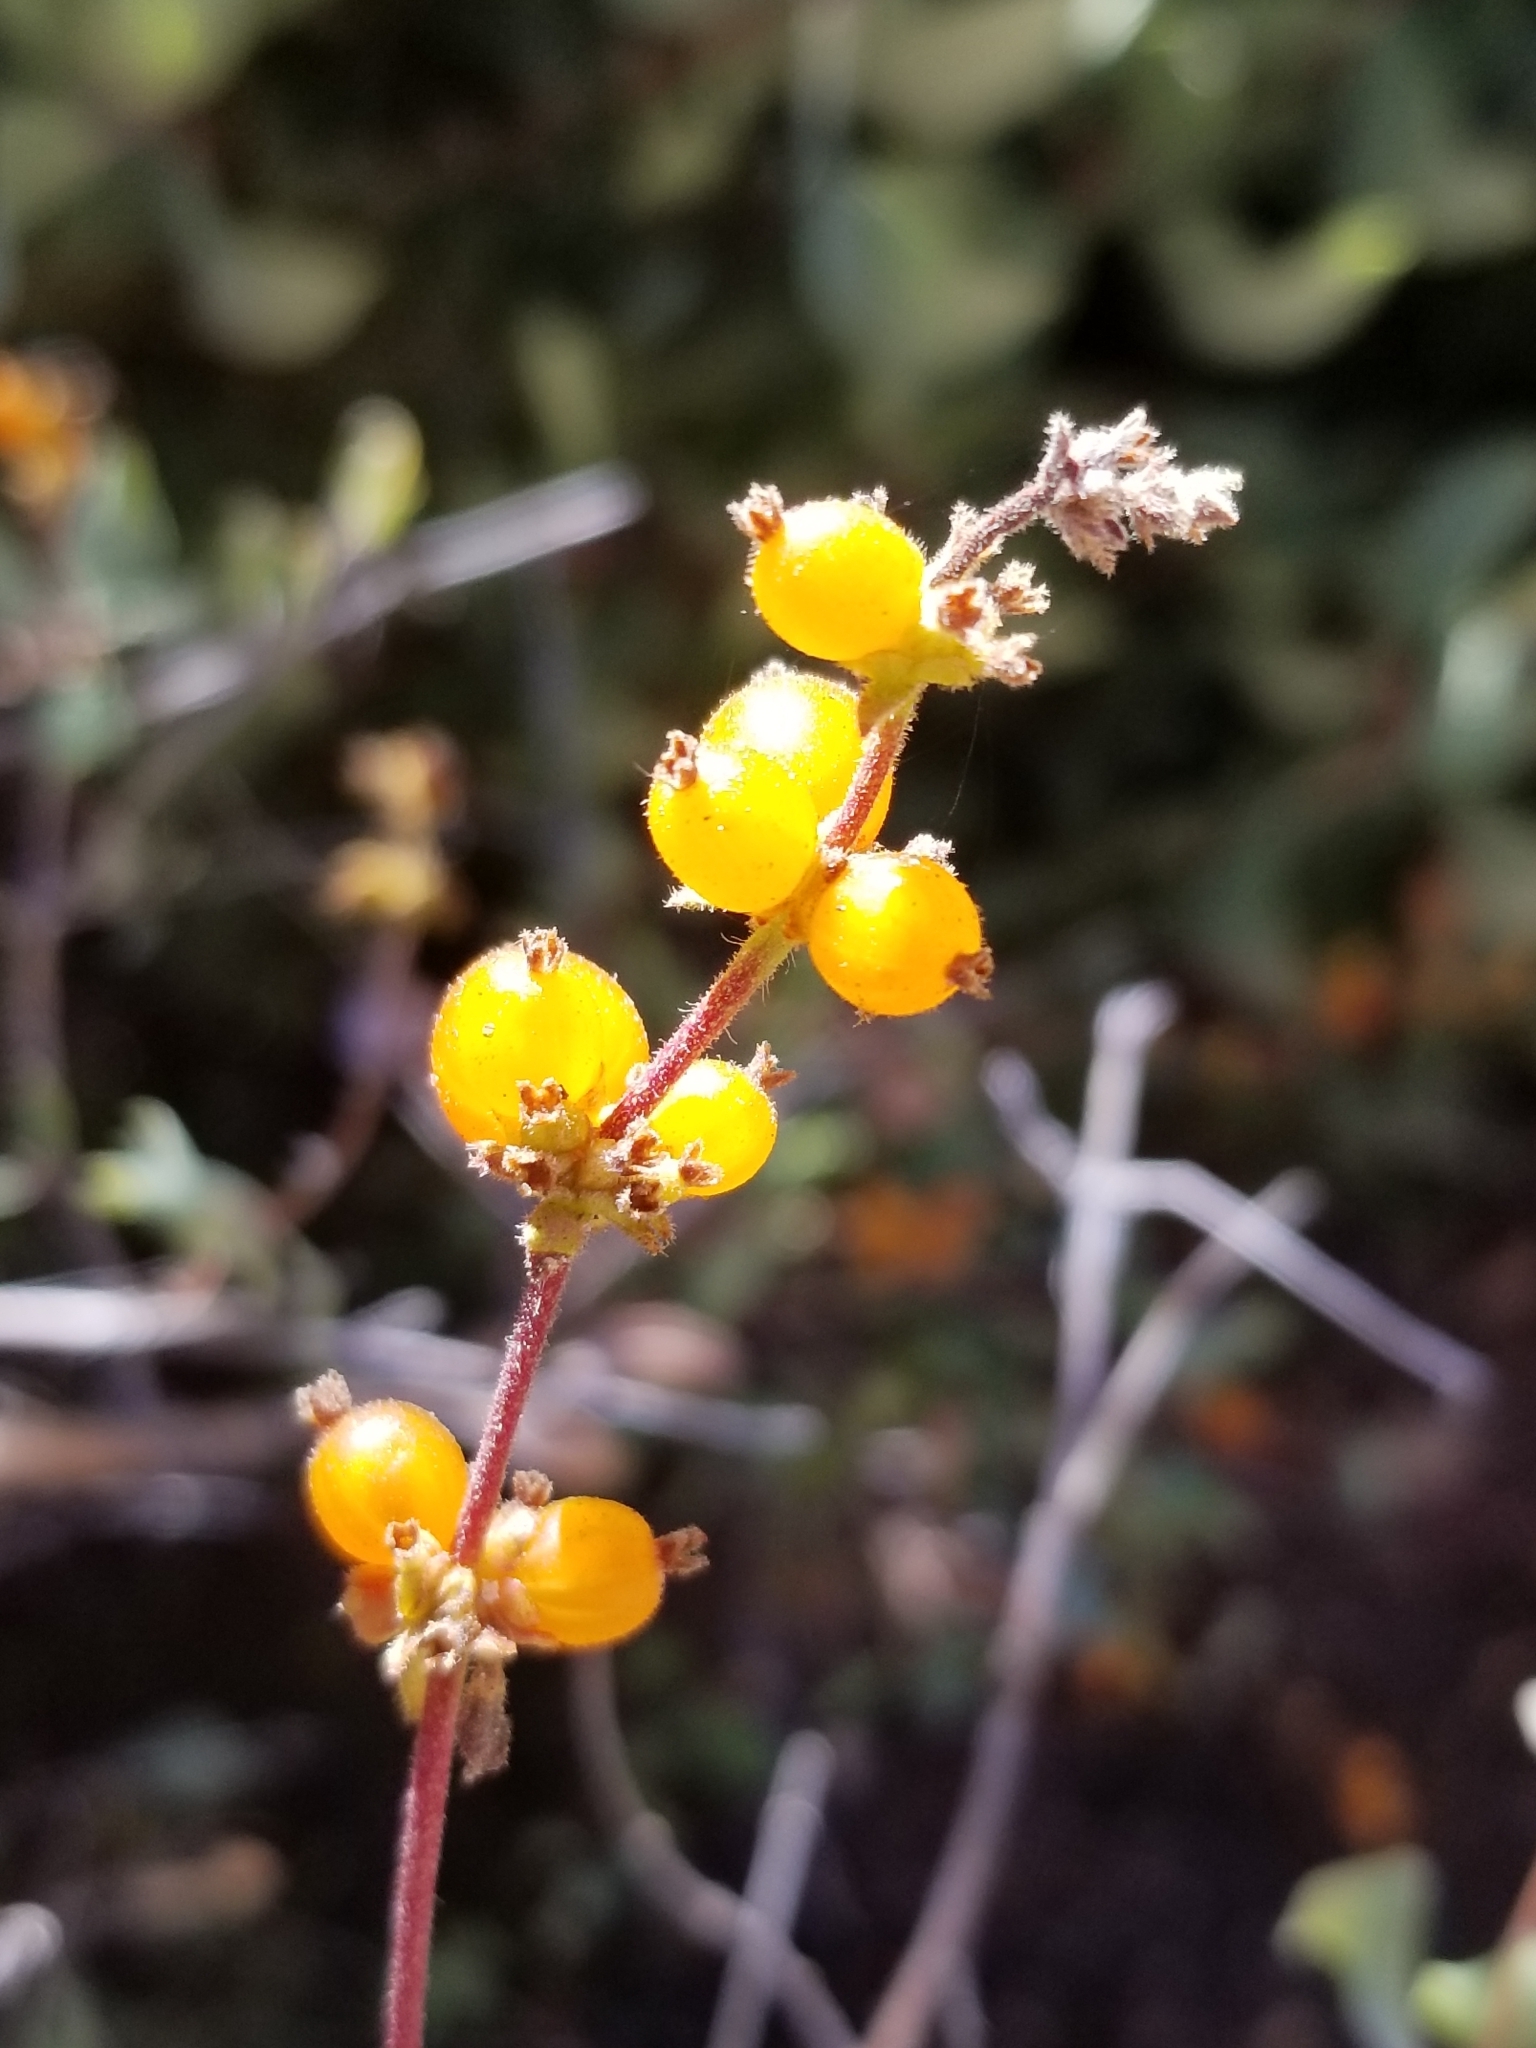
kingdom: Plantae
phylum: Tracheophyta
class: Magnoliopsida
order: Dipsacales
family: Caprifoliaceae
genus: Lonicera
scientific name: Lonicera subspicata
